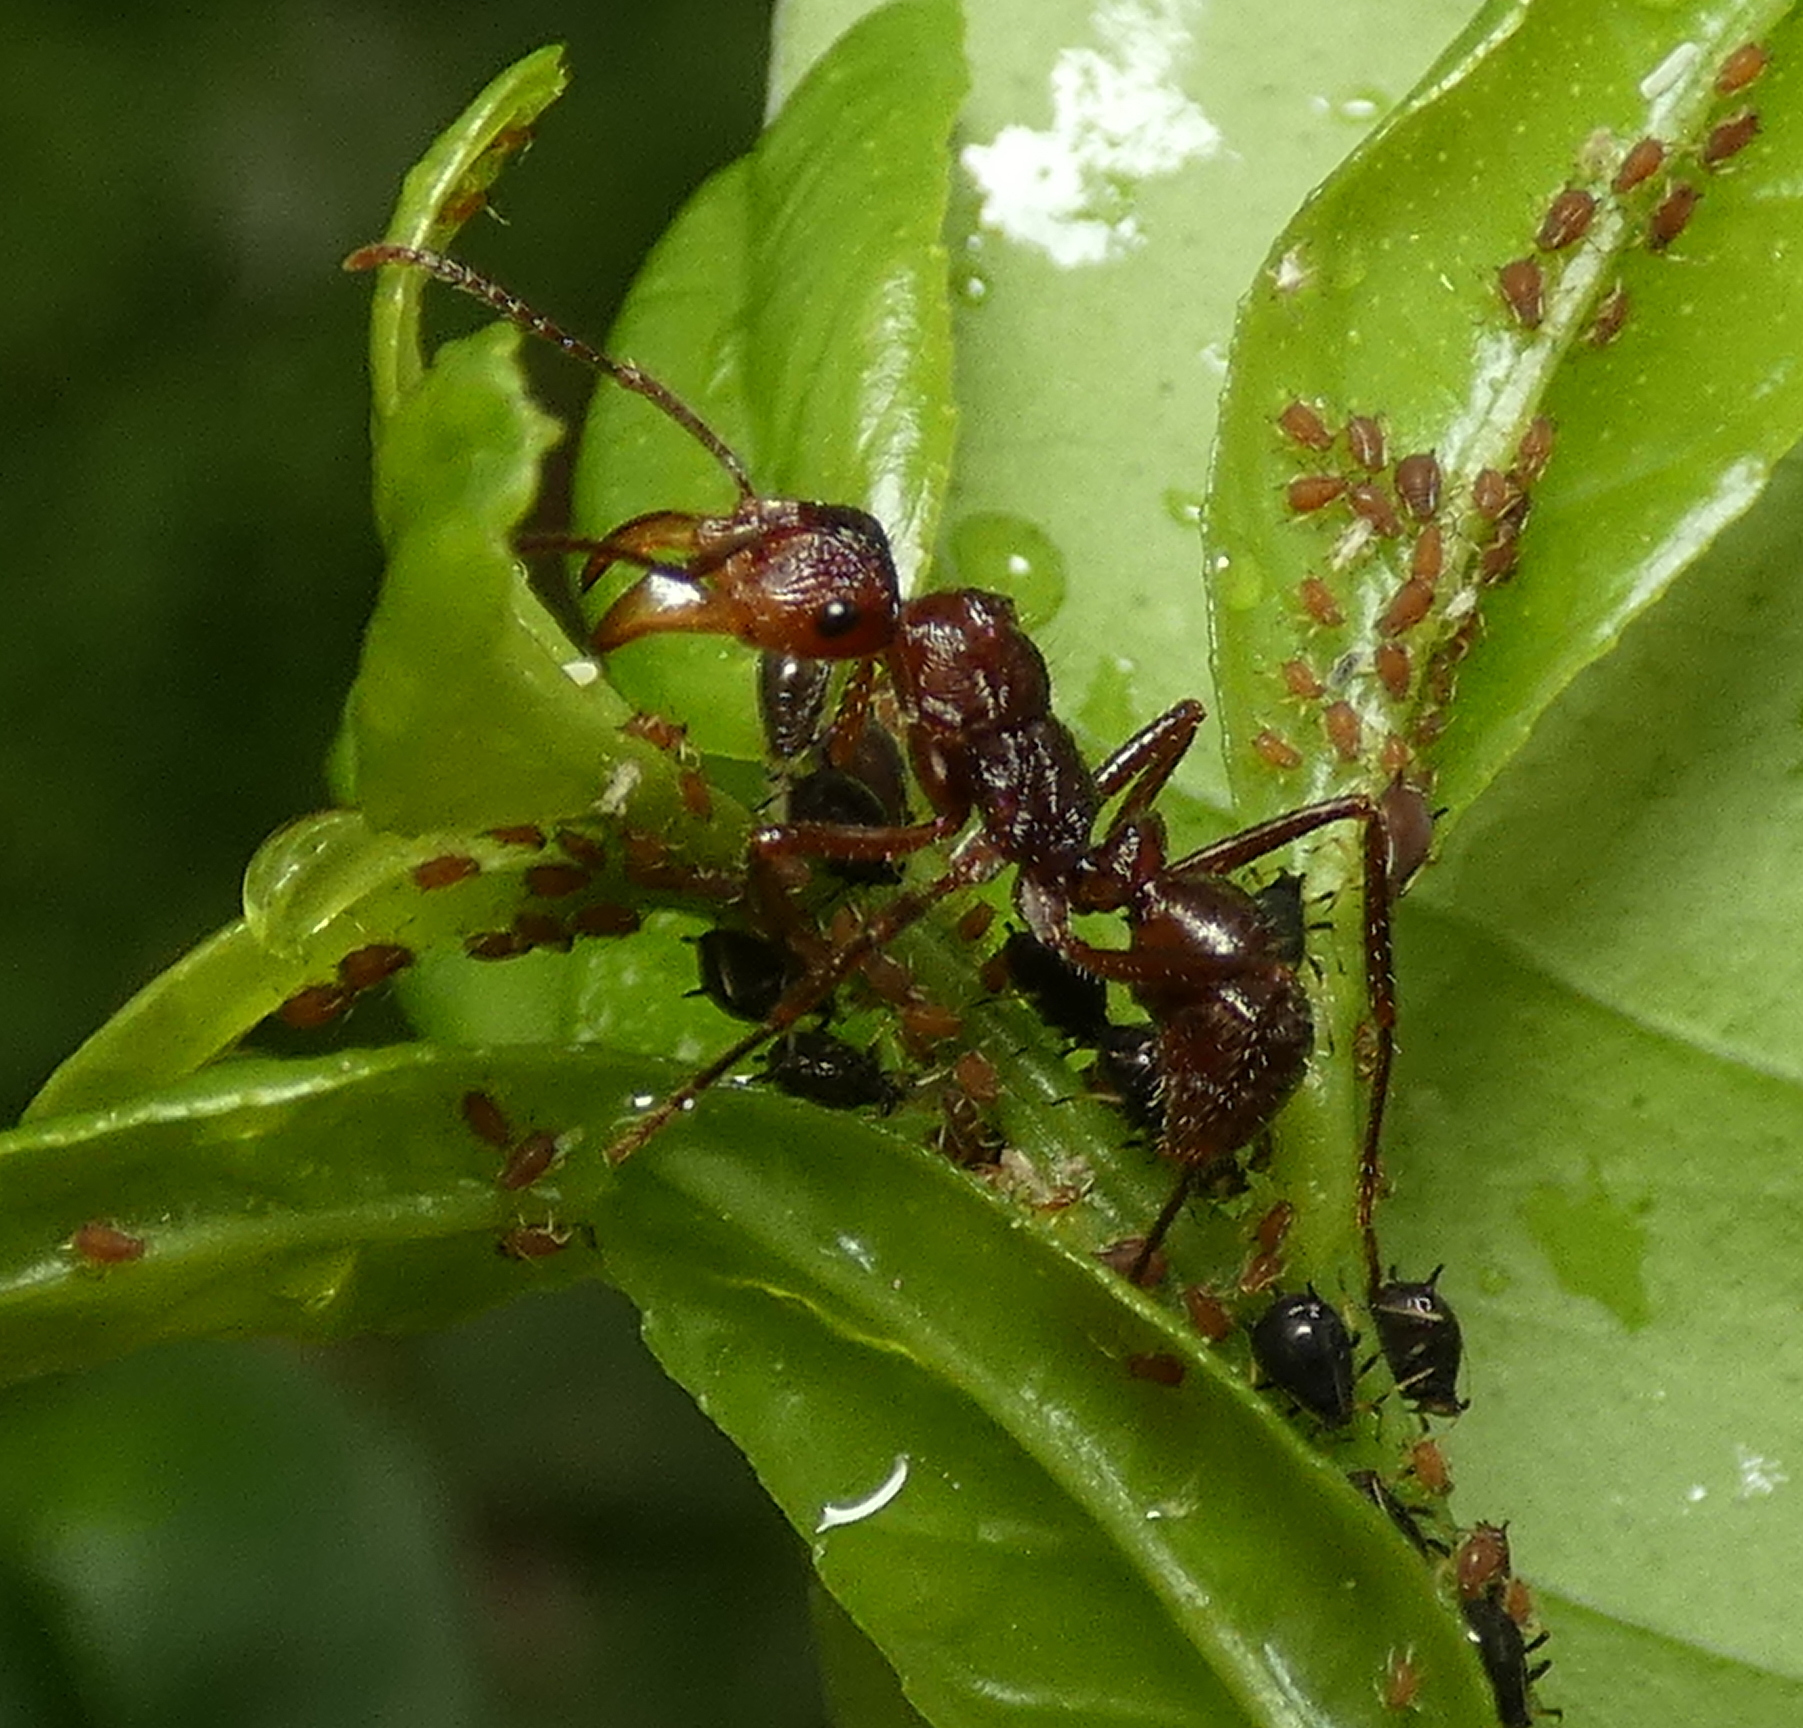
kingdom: Animalia
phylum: Arthropoda
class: Insecta
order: Hymenoptera
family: Formicidae
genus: Ectatomma
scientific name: Ectatomma tuberculatum
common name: Ant
